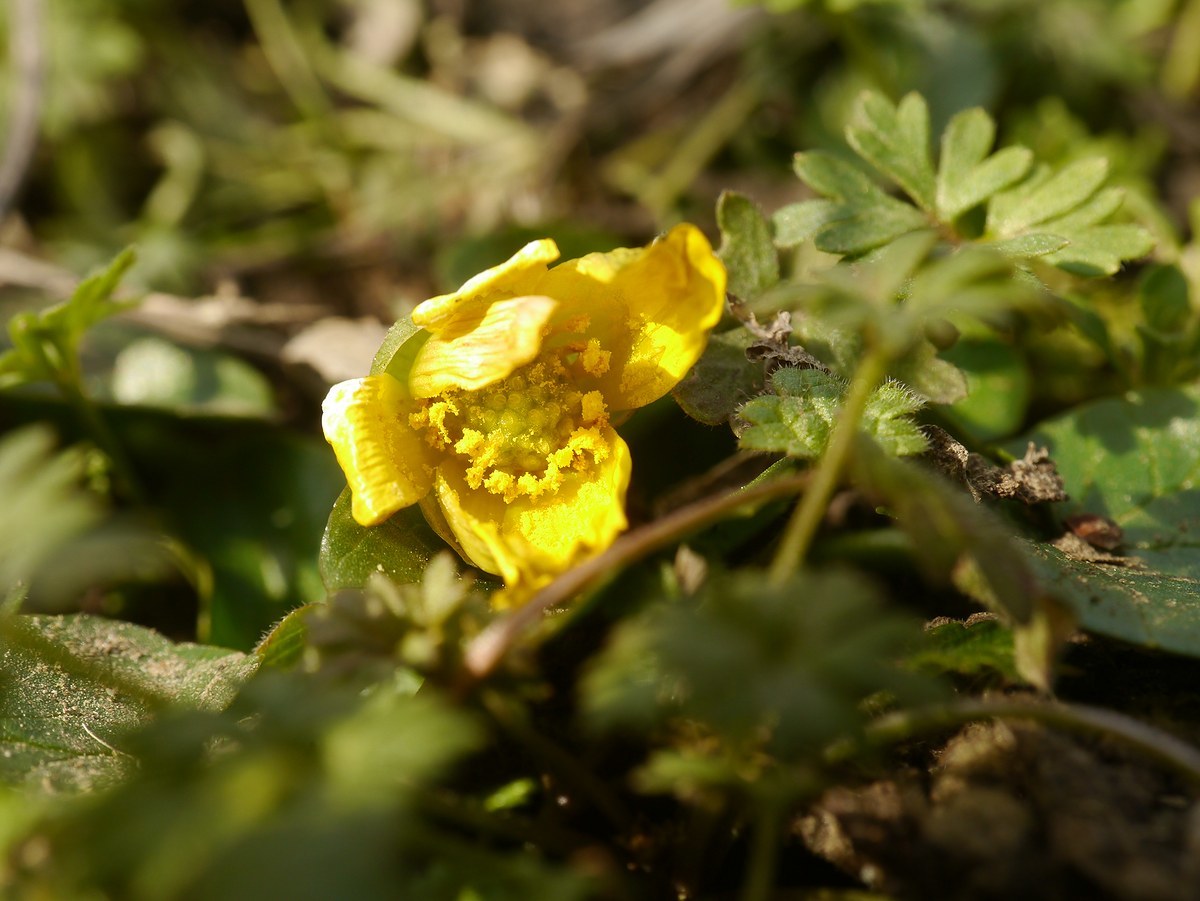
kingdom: Plantae
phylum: Tracheophyta
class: Magnoliopsida
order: Ranunculales
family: Ranunculaceae
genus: Ficaria
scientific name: Ficaria
